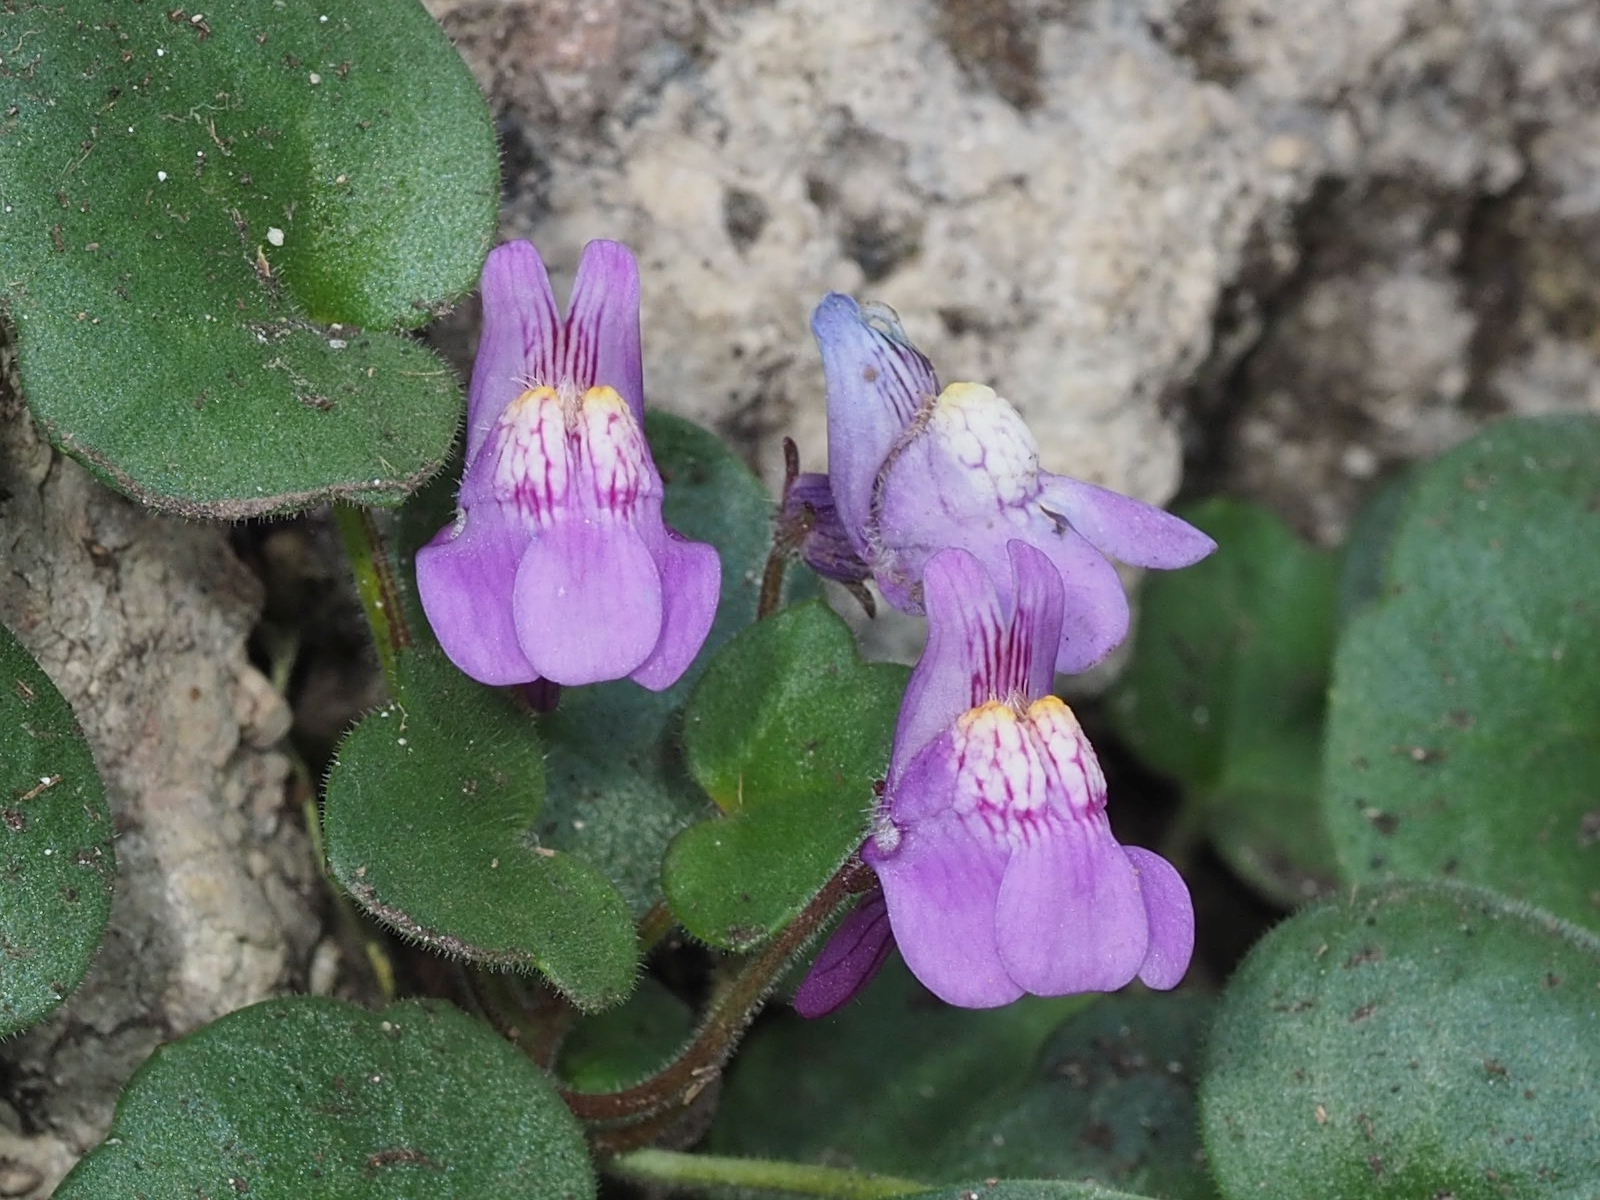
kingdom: Plantae
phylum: Tracheophyta
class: Magnoliopsida
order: Lamiales
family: Plantaginaceae
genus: Cymbalaria
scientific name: Cymbalaria pallida
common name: Italian toadflax
